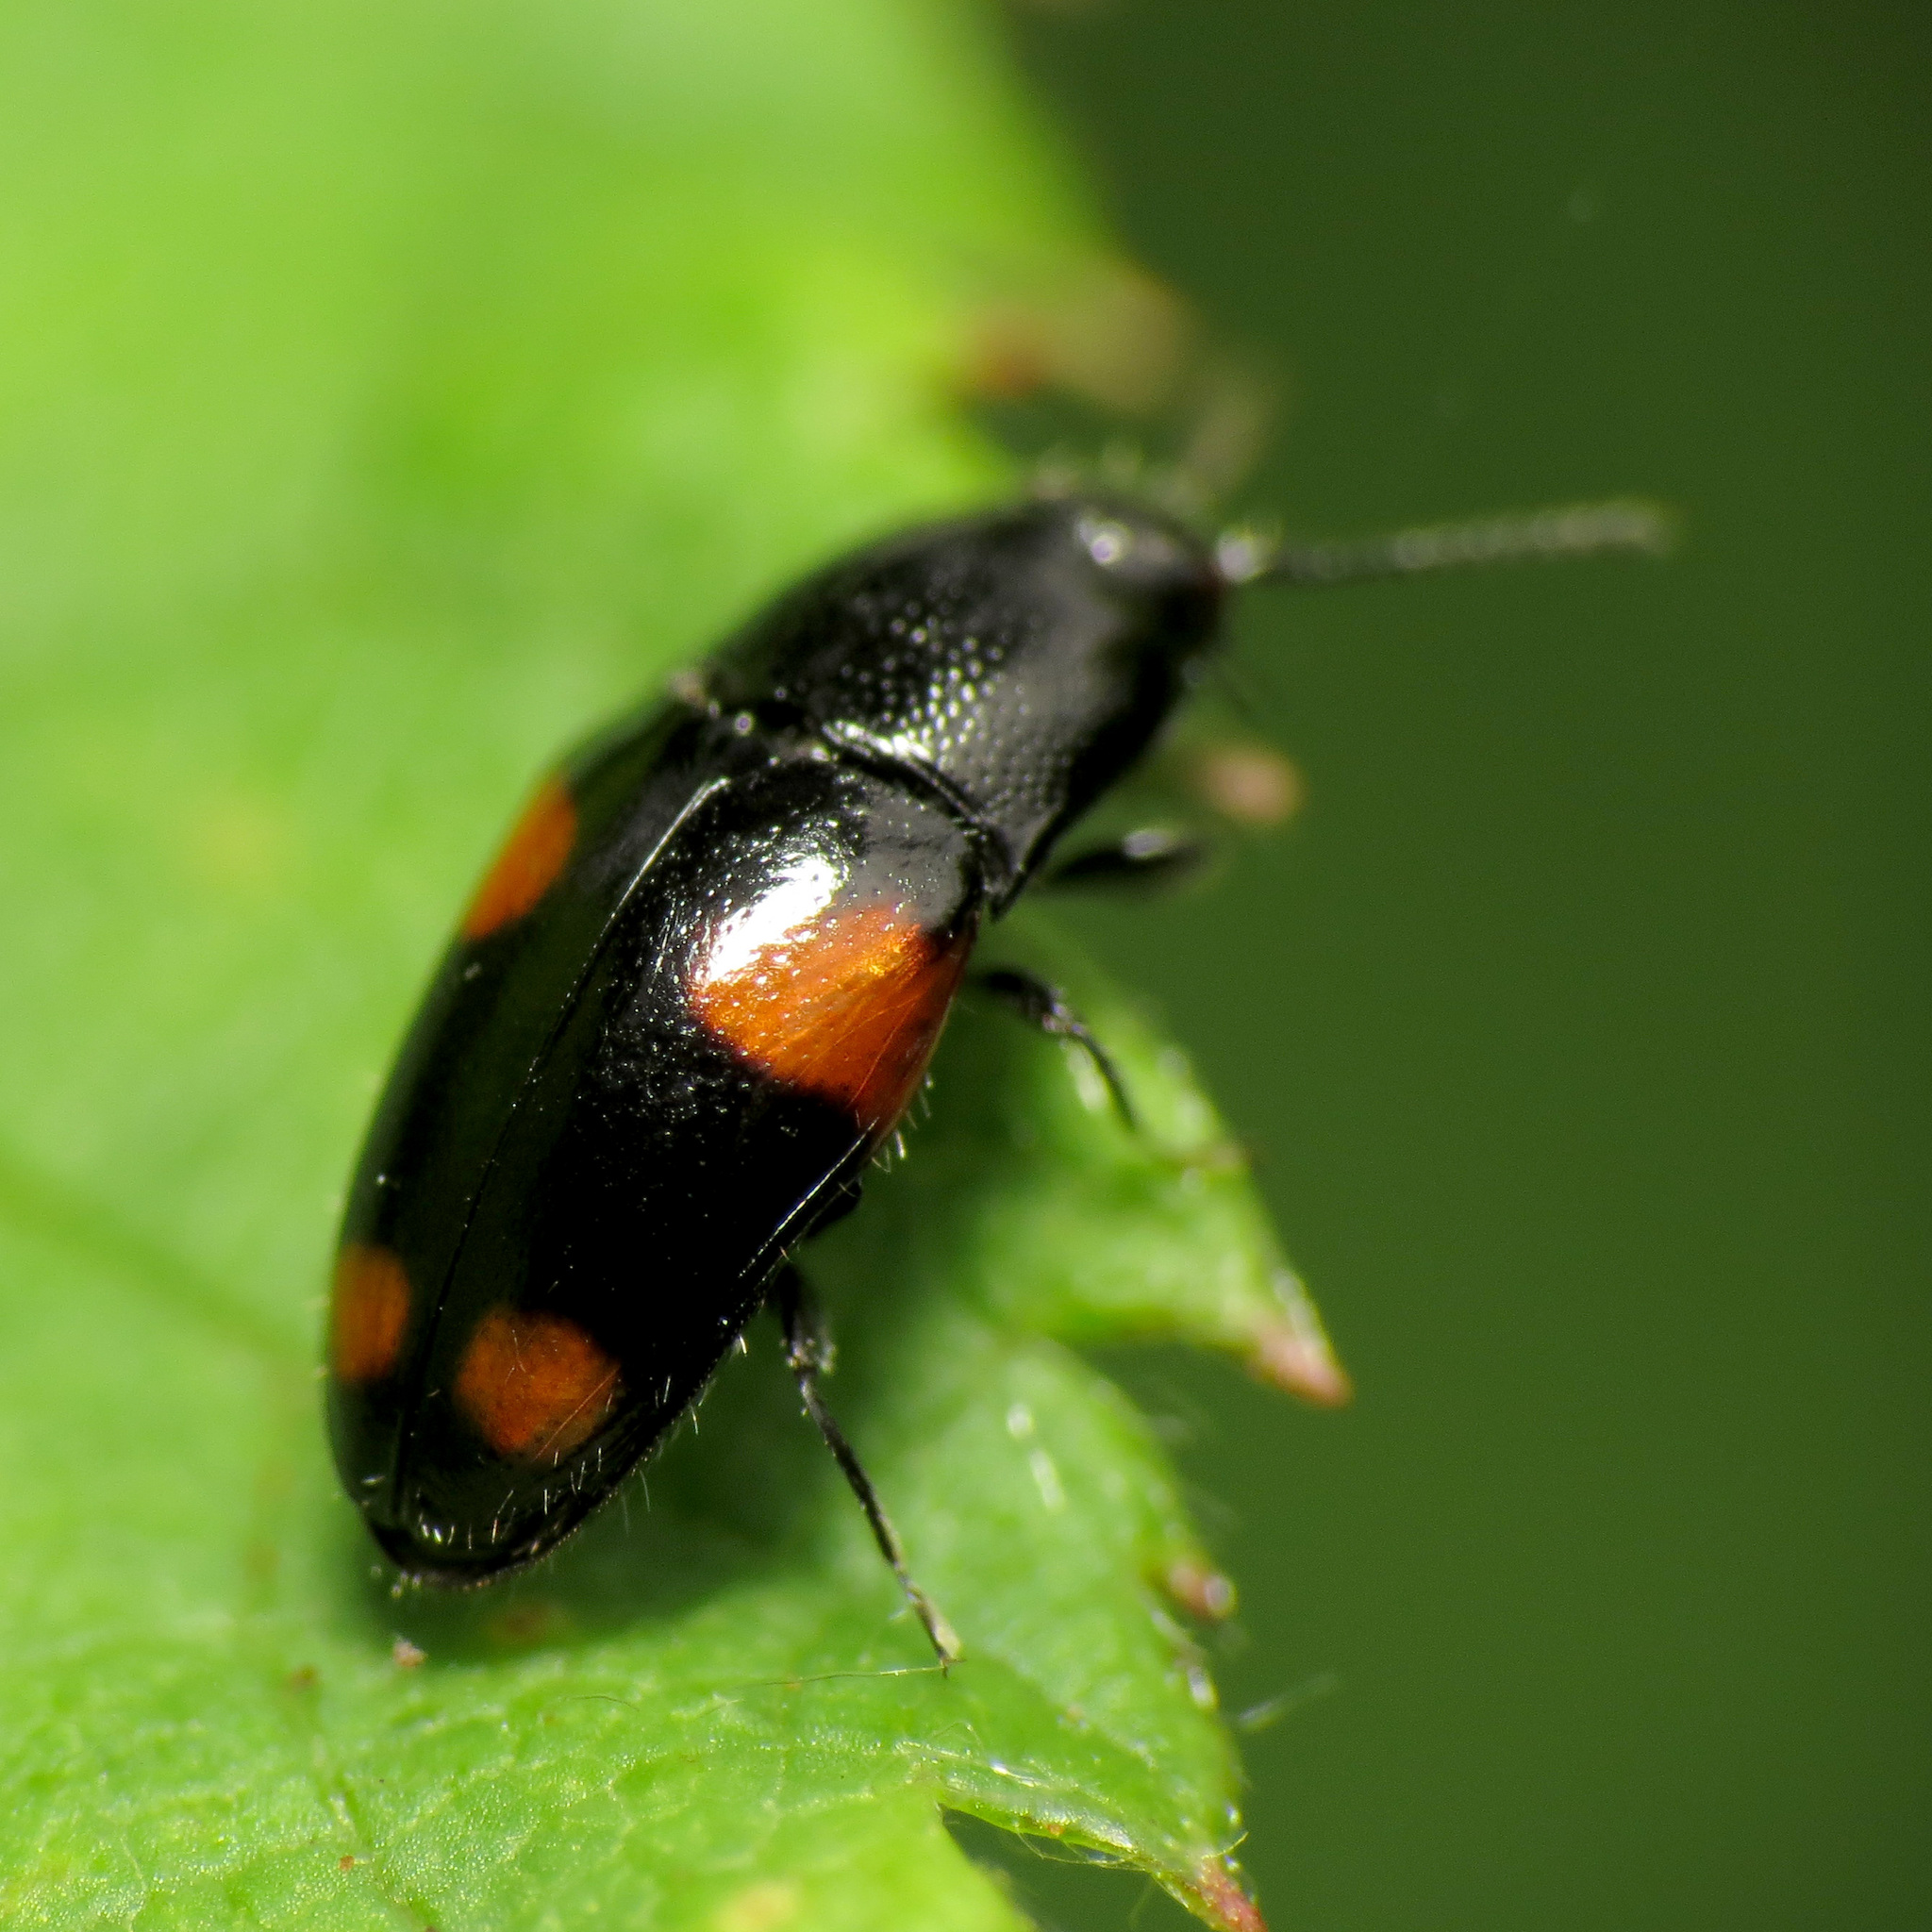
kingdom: Animalia
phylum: Arthropoda
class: Insecta
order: Coleoptera
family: Elateridae
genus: Drapetes
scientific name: Drapetes
